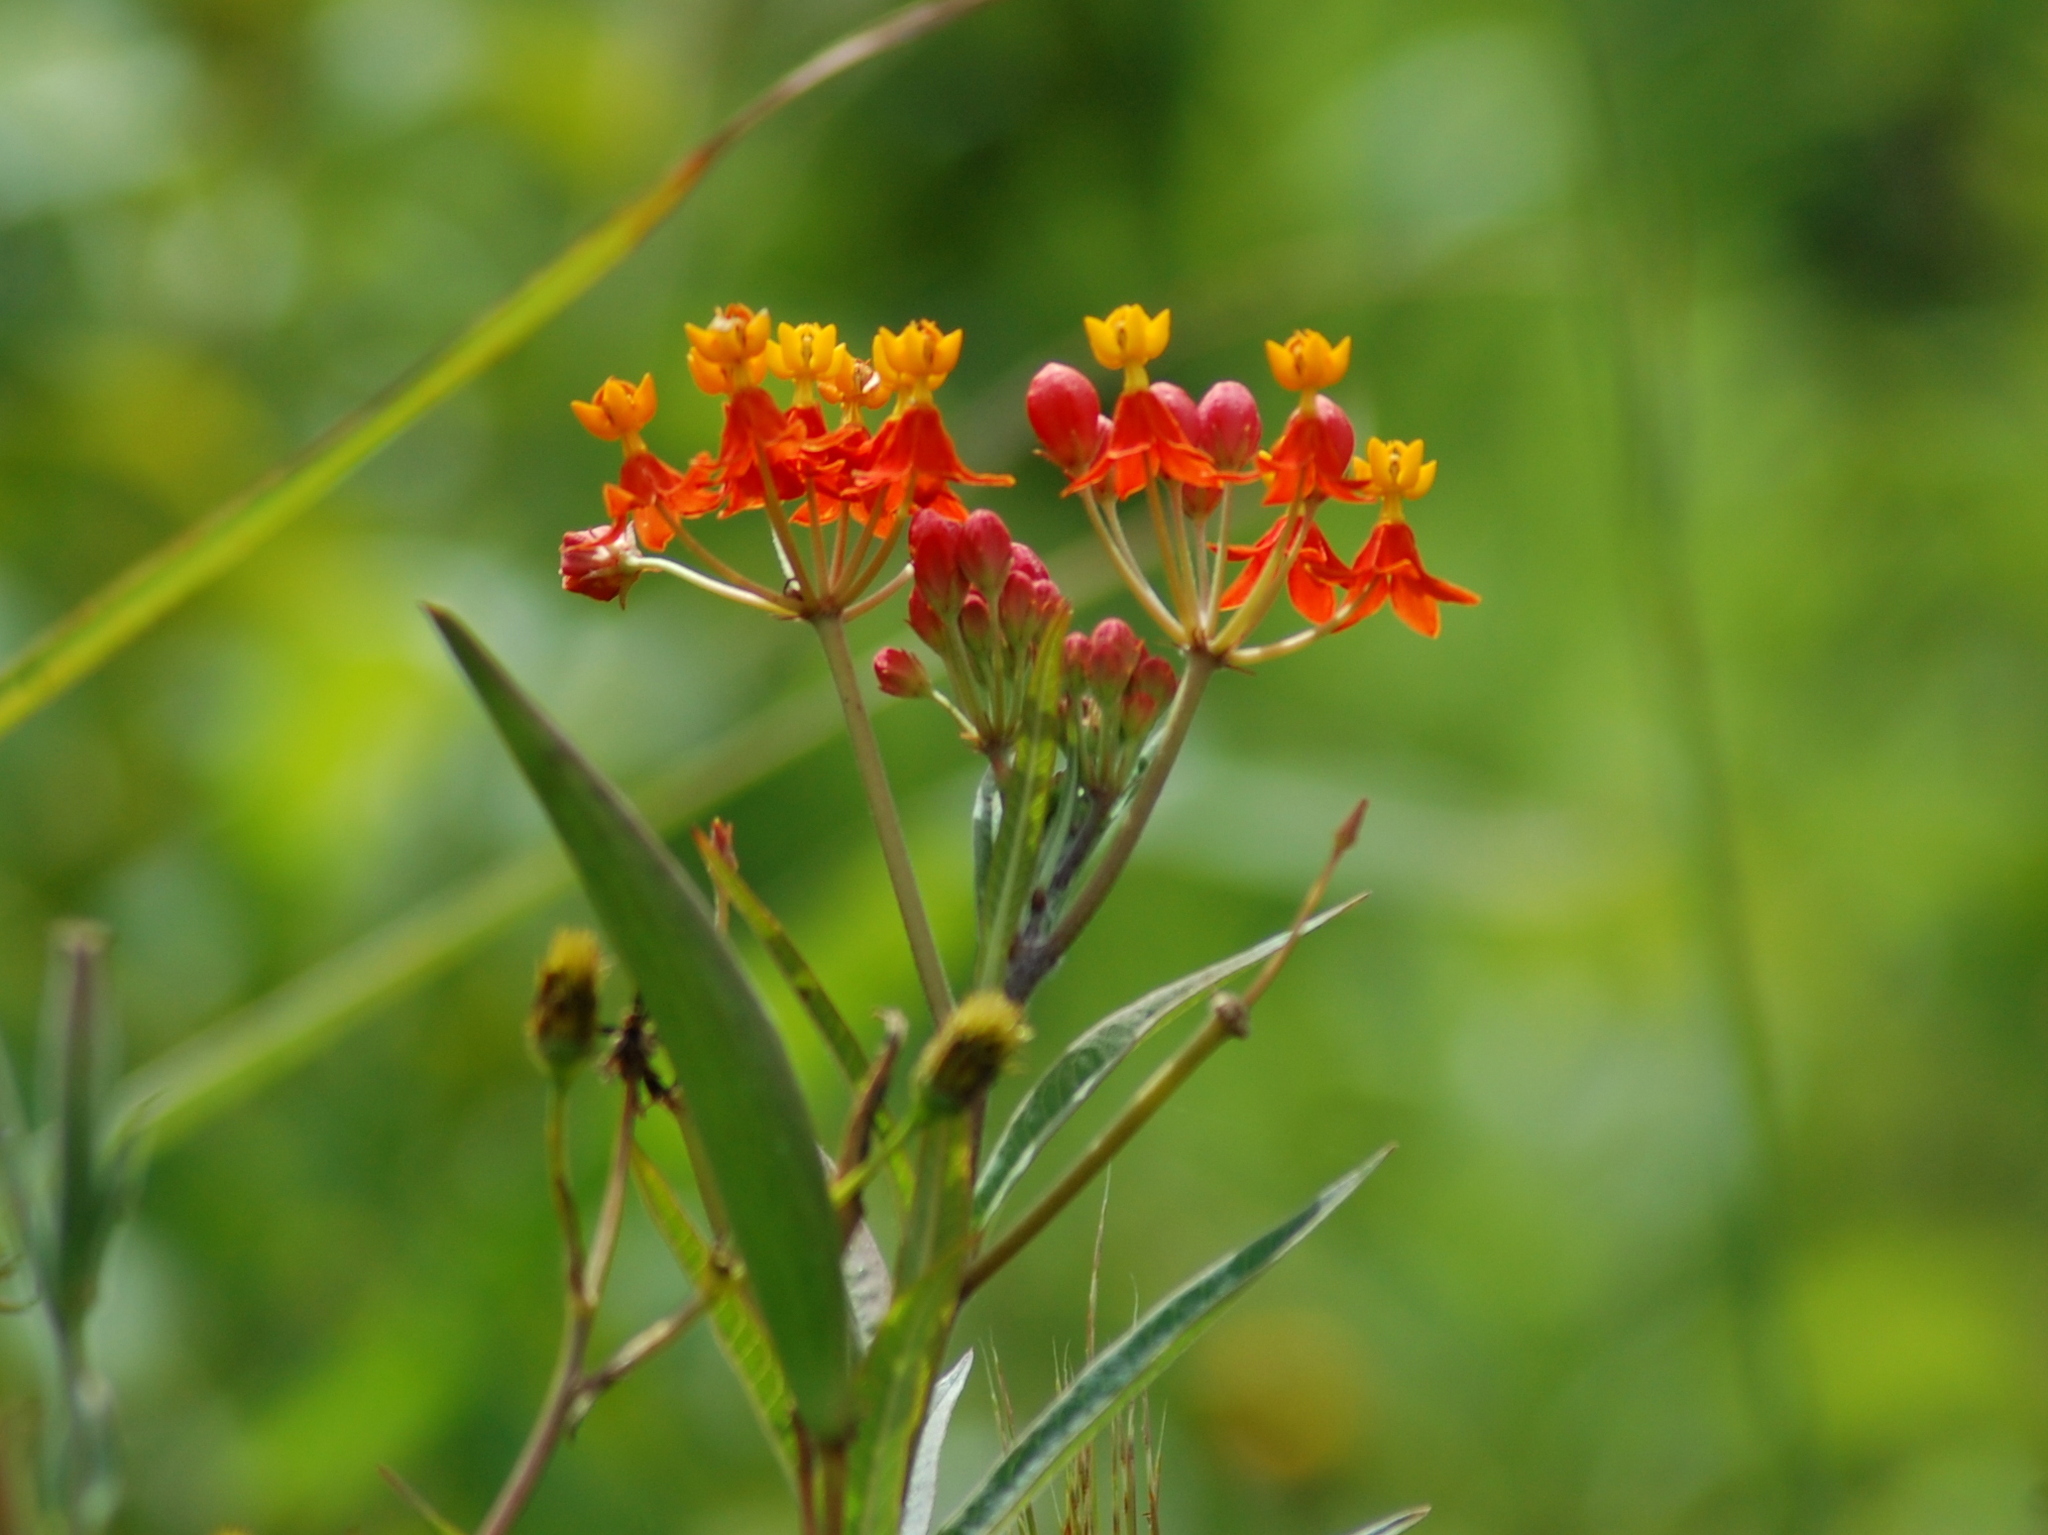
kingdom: Plantae
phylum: Tracheophyta
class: Magnoliopsida
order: Gentianales
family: Apocynaceae
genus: Asclepias
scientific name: Asclepias curassavica
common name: Bloodflower
